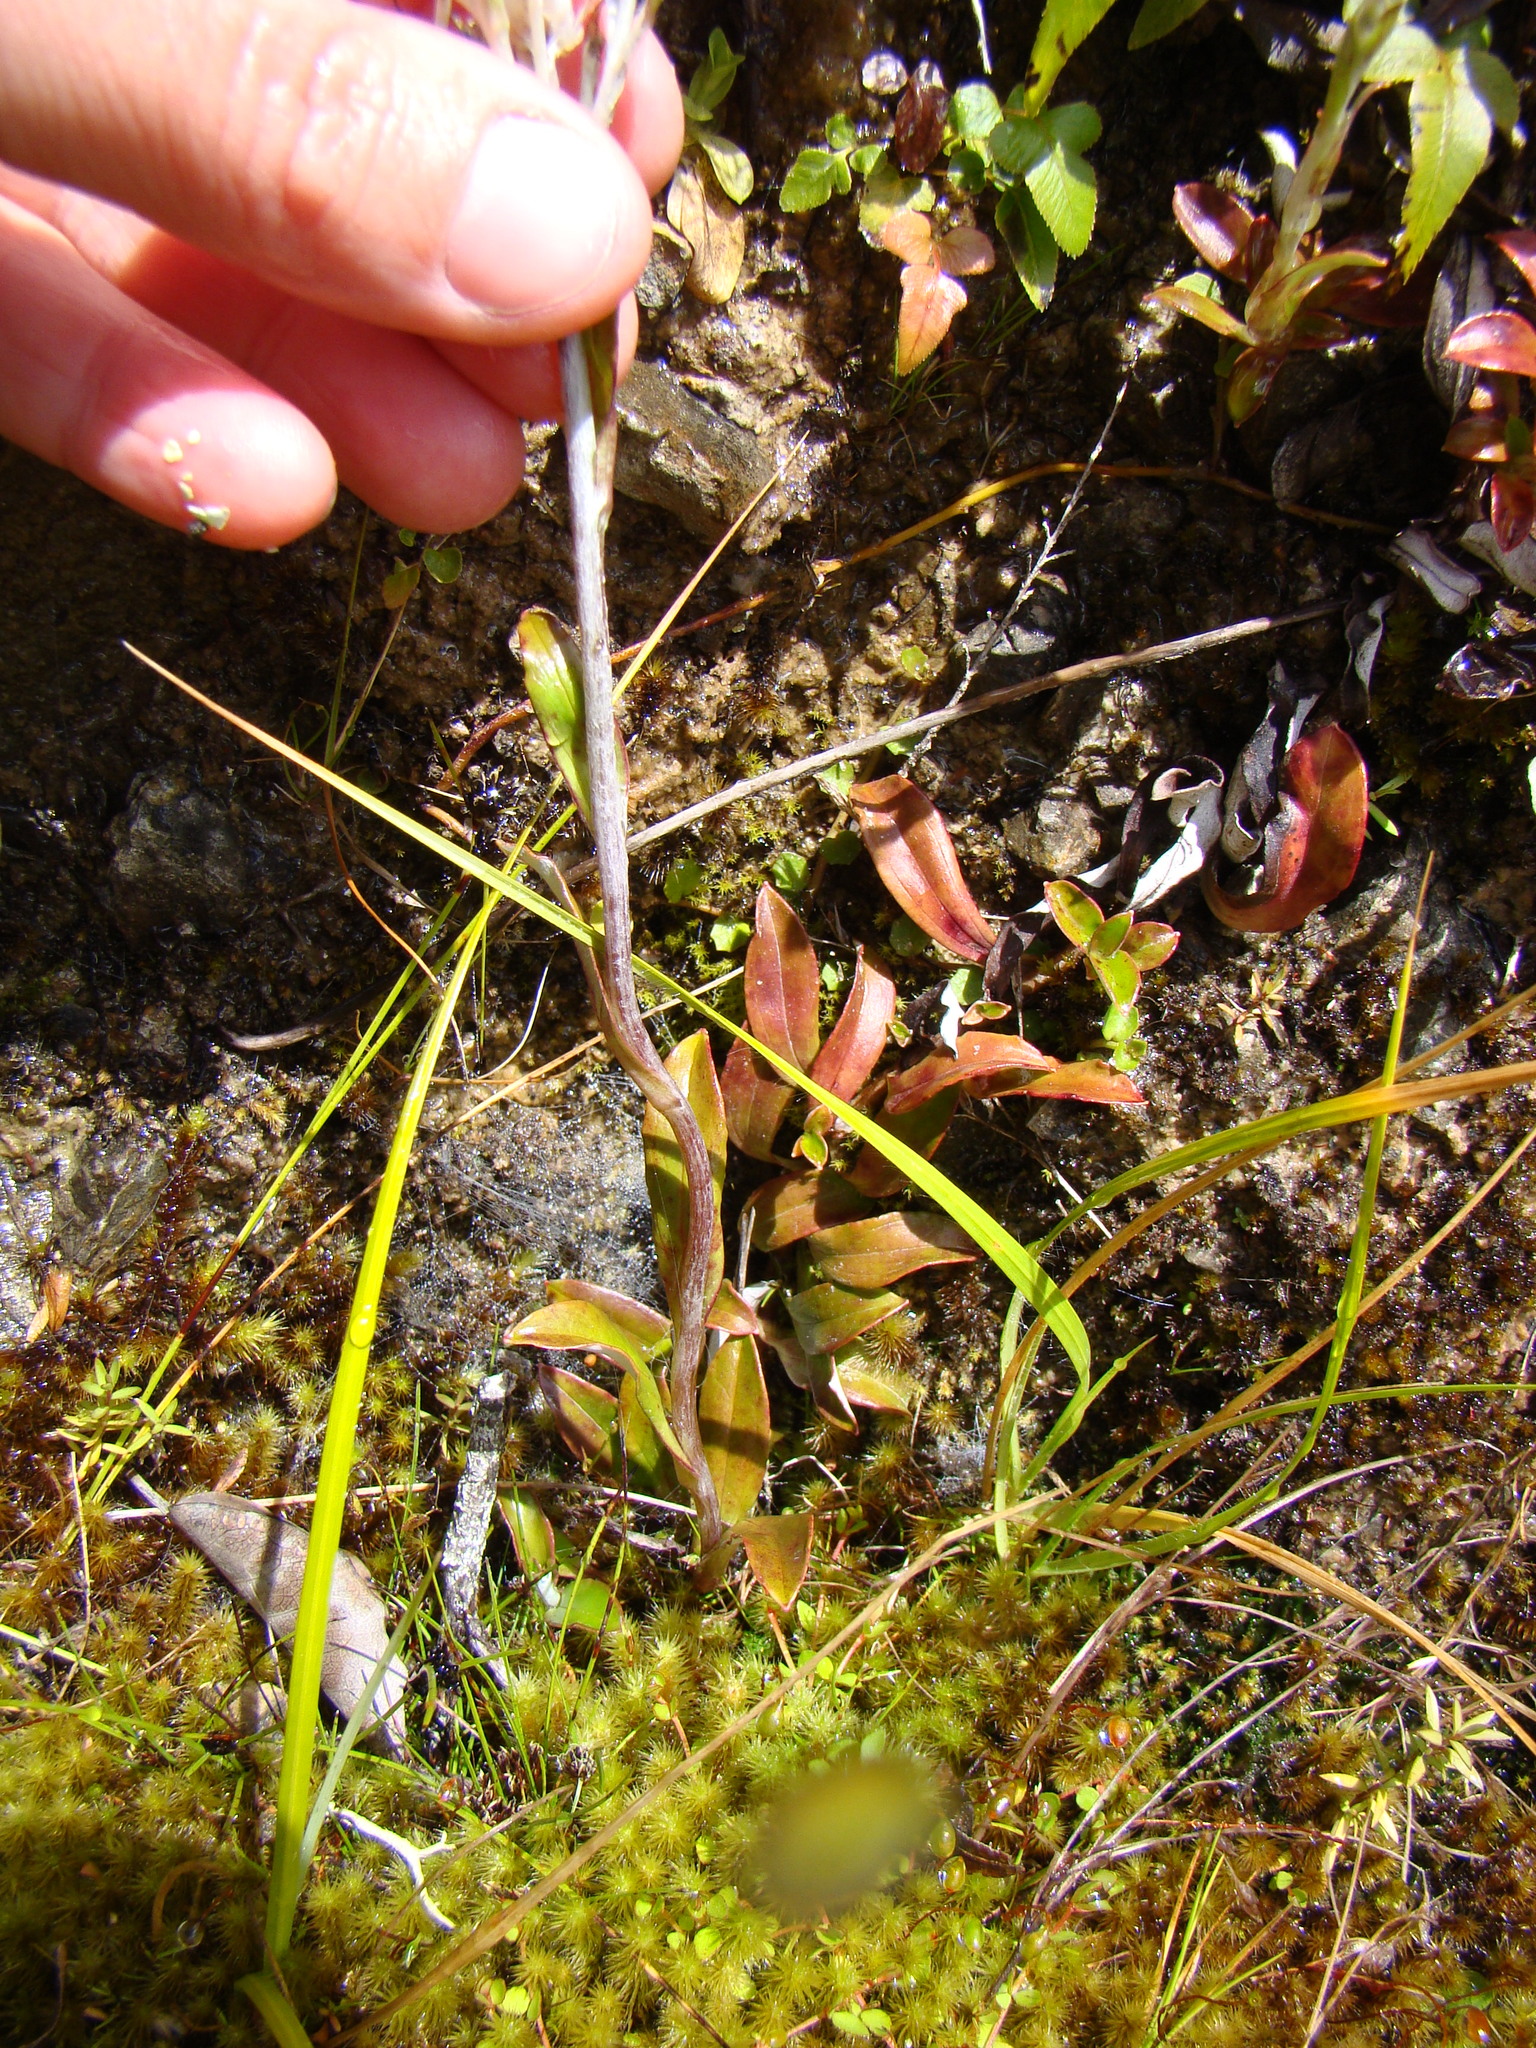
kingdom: Plantae
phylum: Tracheophyta
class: Magnoliopsida
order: Asterales
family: Asteraceae
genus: Anaphalioides
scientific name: Anaphalioides trinervis
